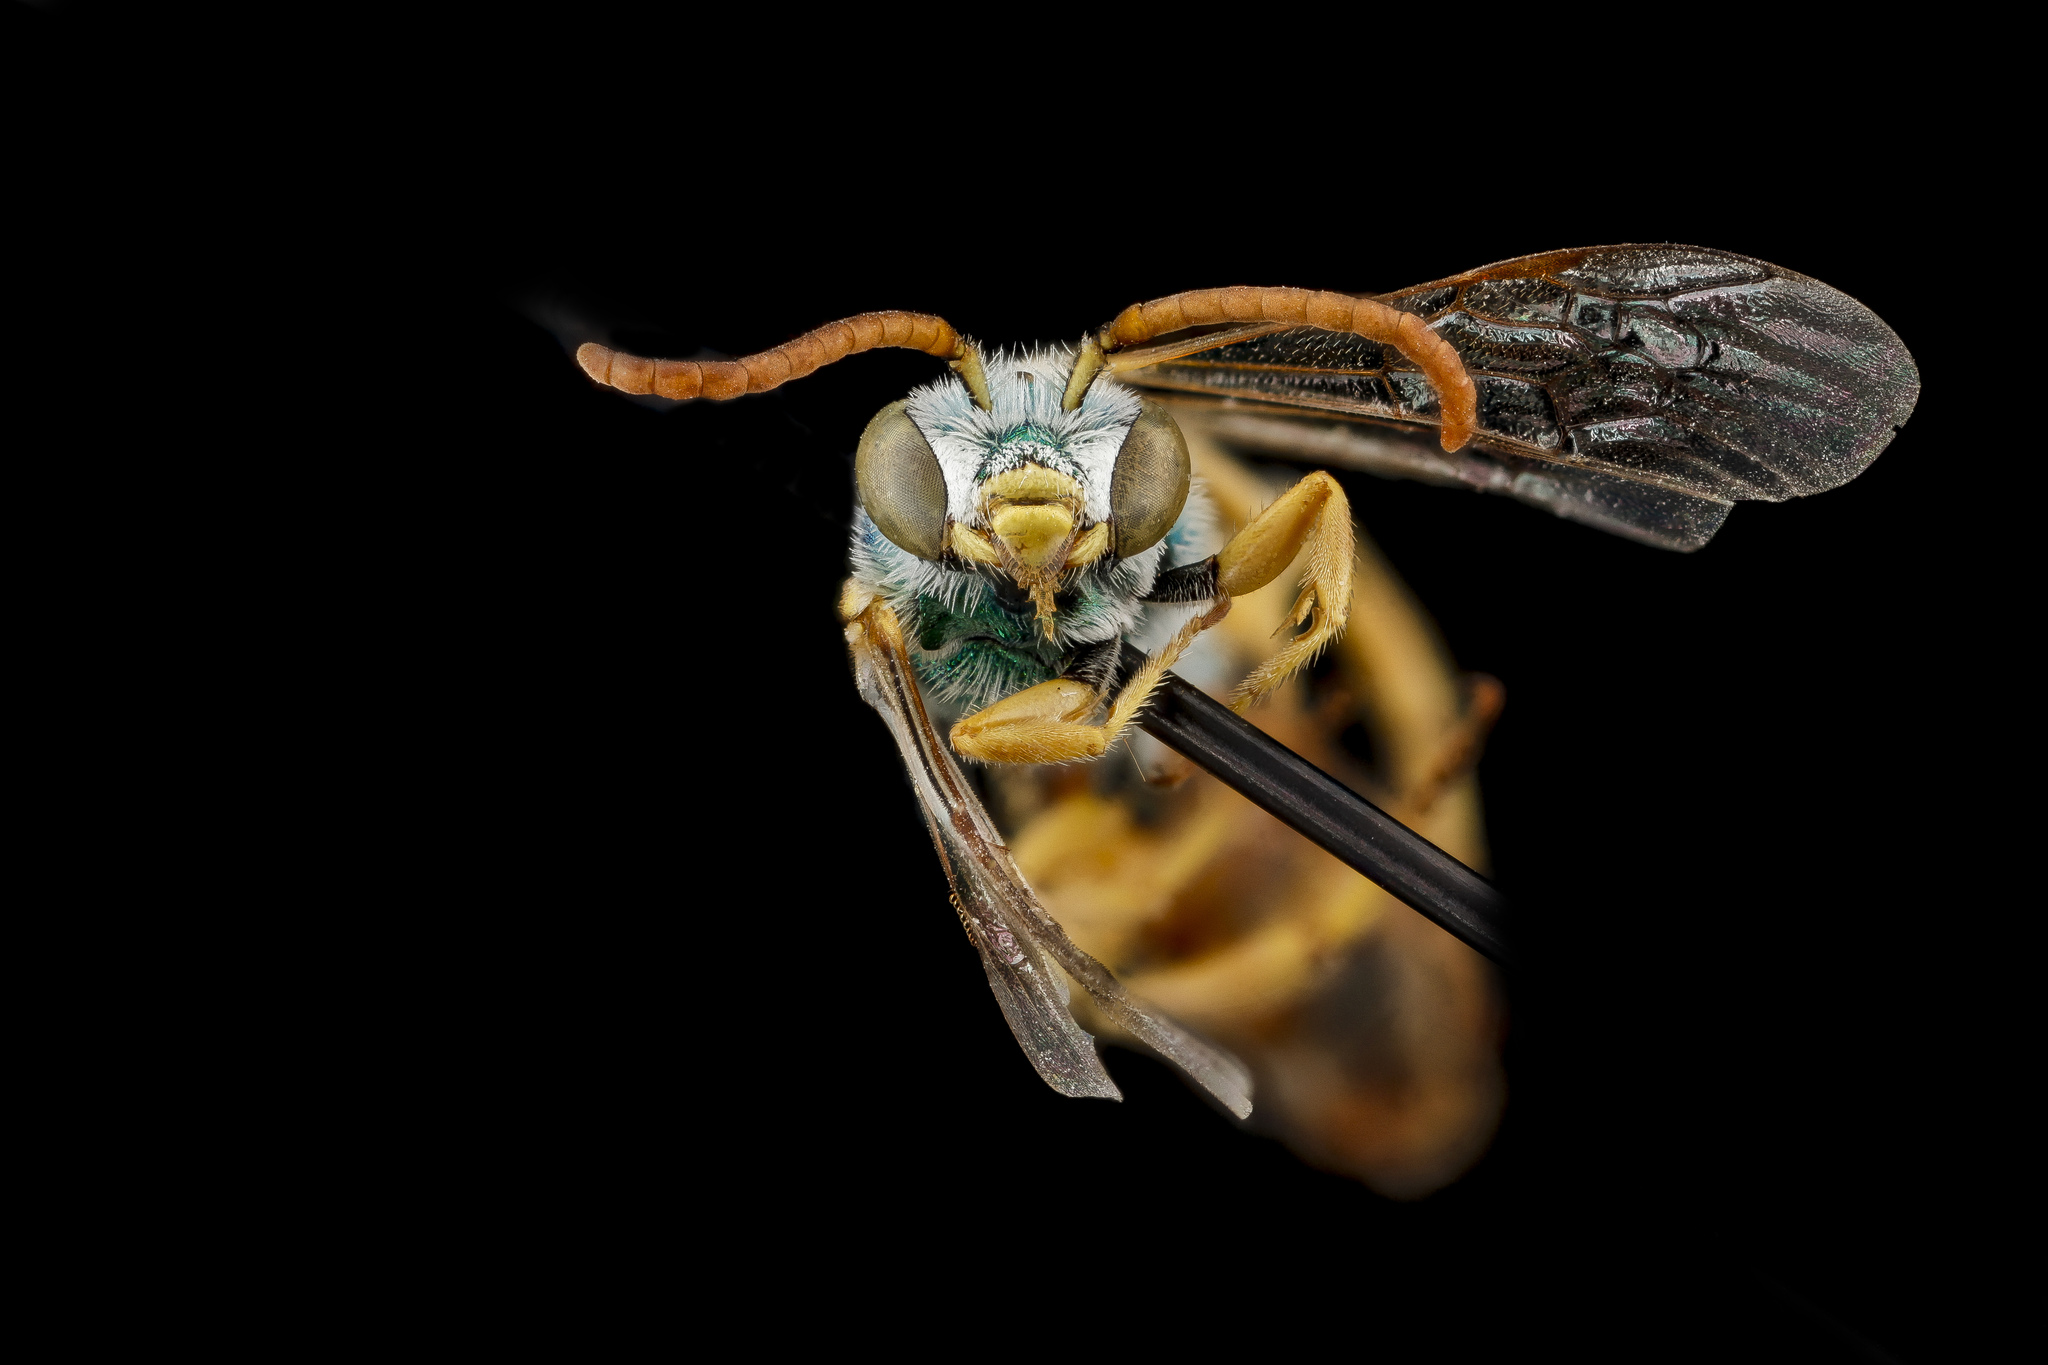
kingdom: Animalia
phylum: Arthropoda
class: Insecta
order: Hymenoptera
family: Halictidae
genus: Agapostemon
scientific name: Agapostemon angelicus
